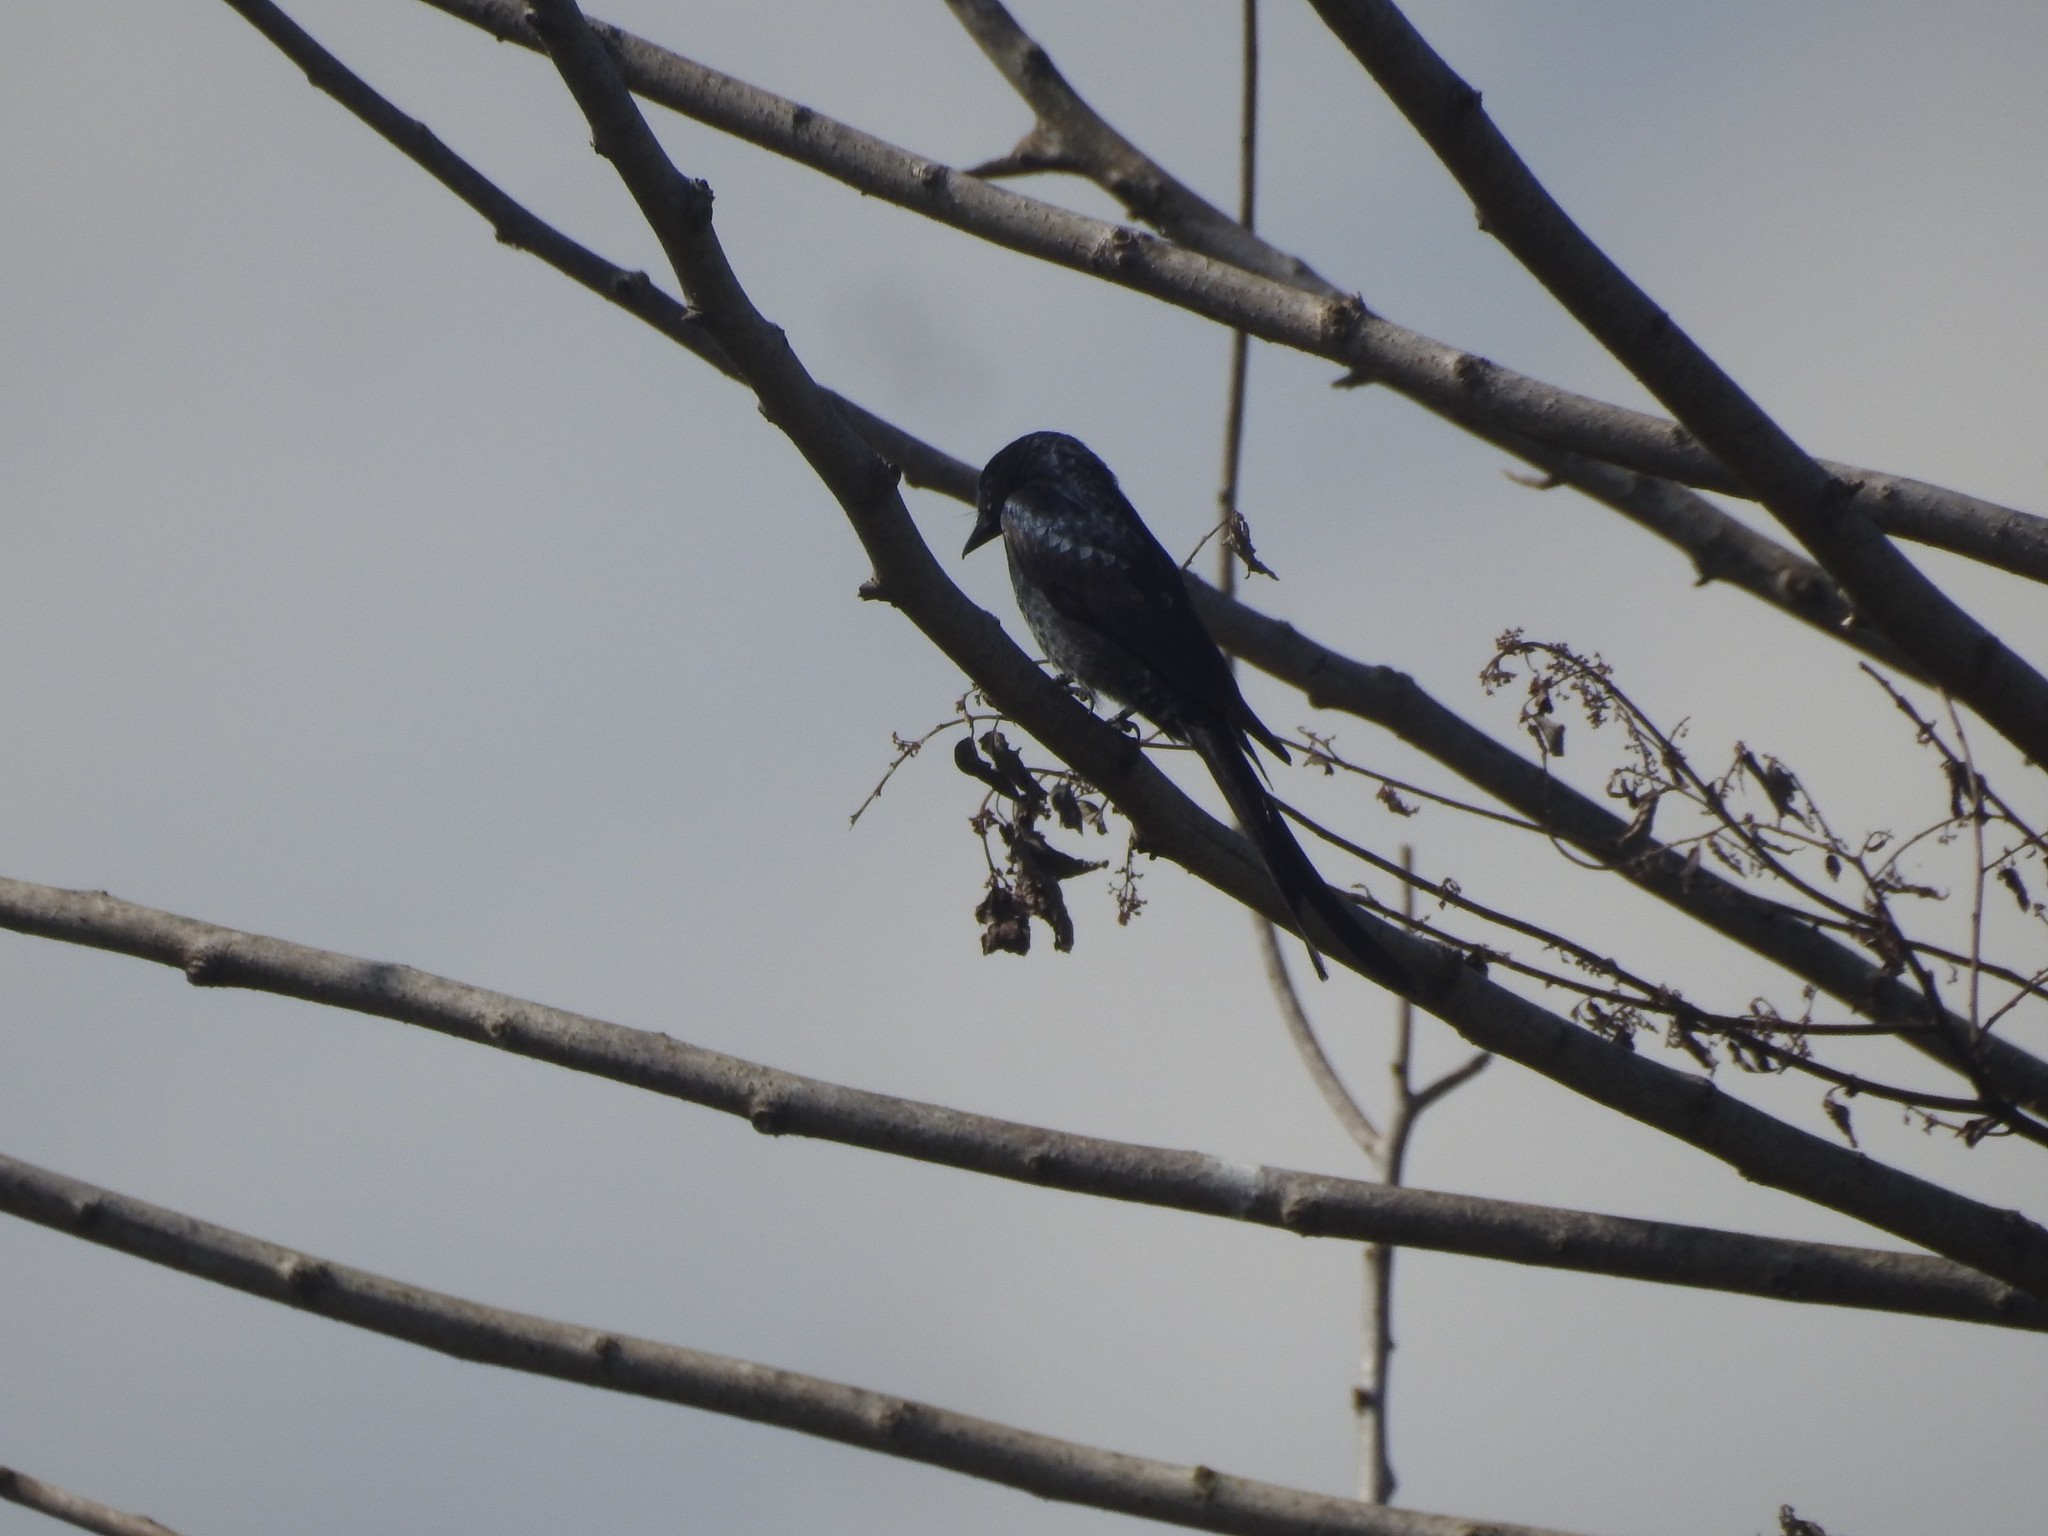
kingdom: Animalia
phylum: Chordata
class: Aves
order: Passeriformes
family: Dicruridae
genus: Dicrurus
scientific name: Dicrurus macrocercus
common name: Black drongo
